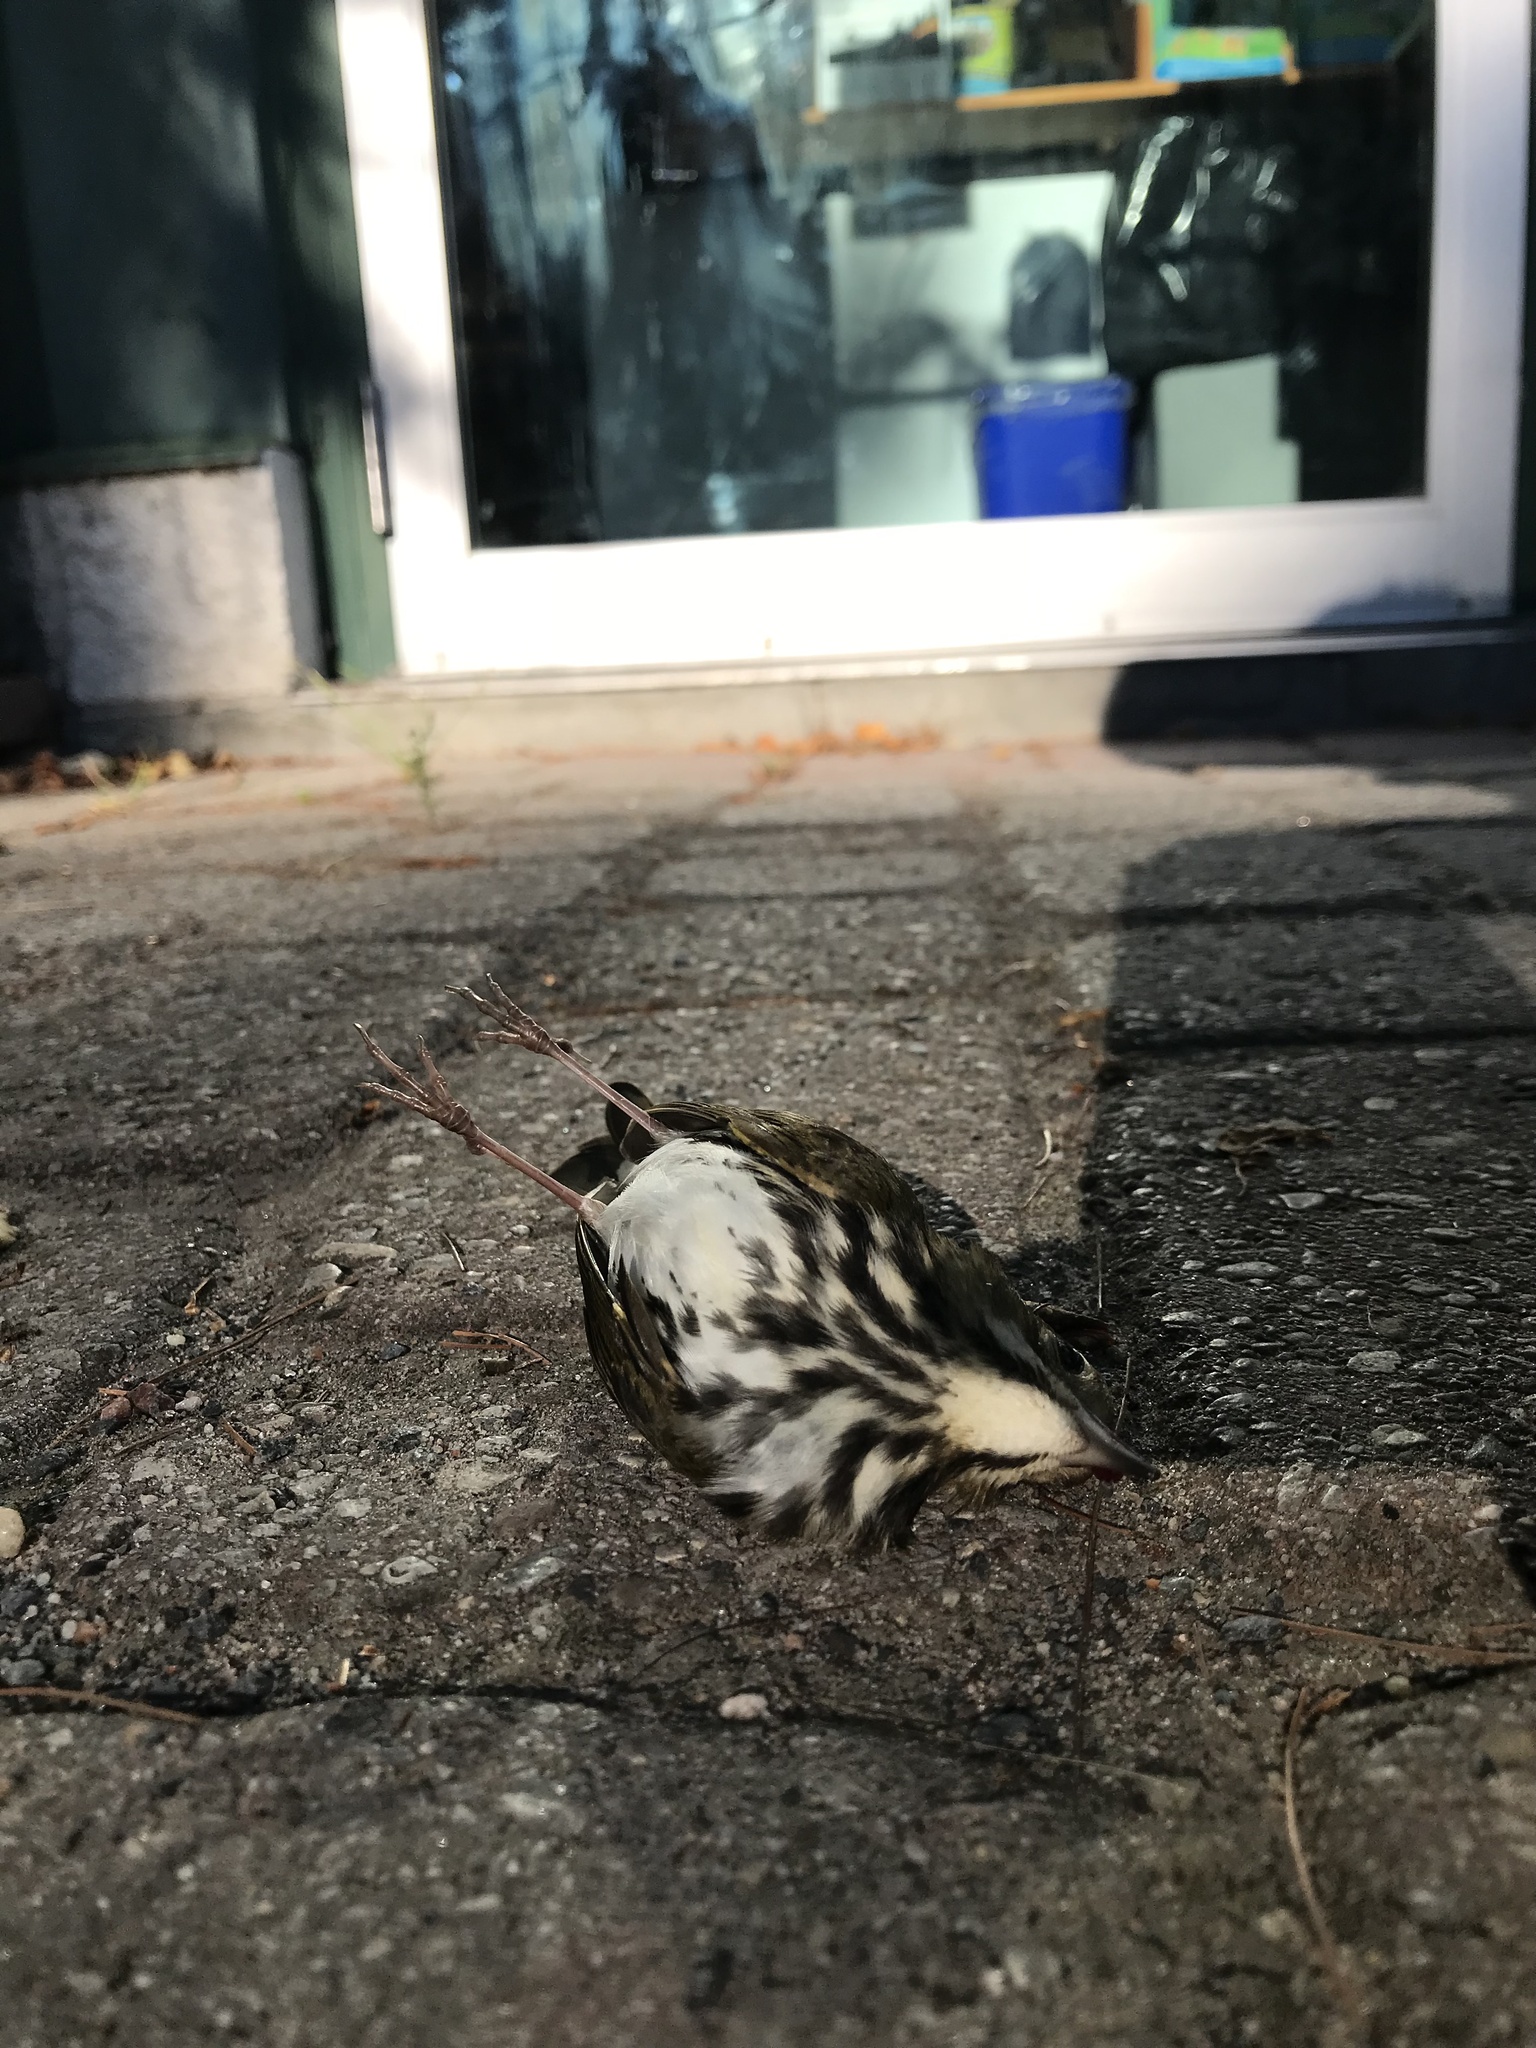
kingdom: Animalia
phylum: Chordata
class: Aves
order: Passeriformes
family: Parulidae
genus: Seiurus
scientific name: Seiurus aurocapilla
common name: Ovenbird
